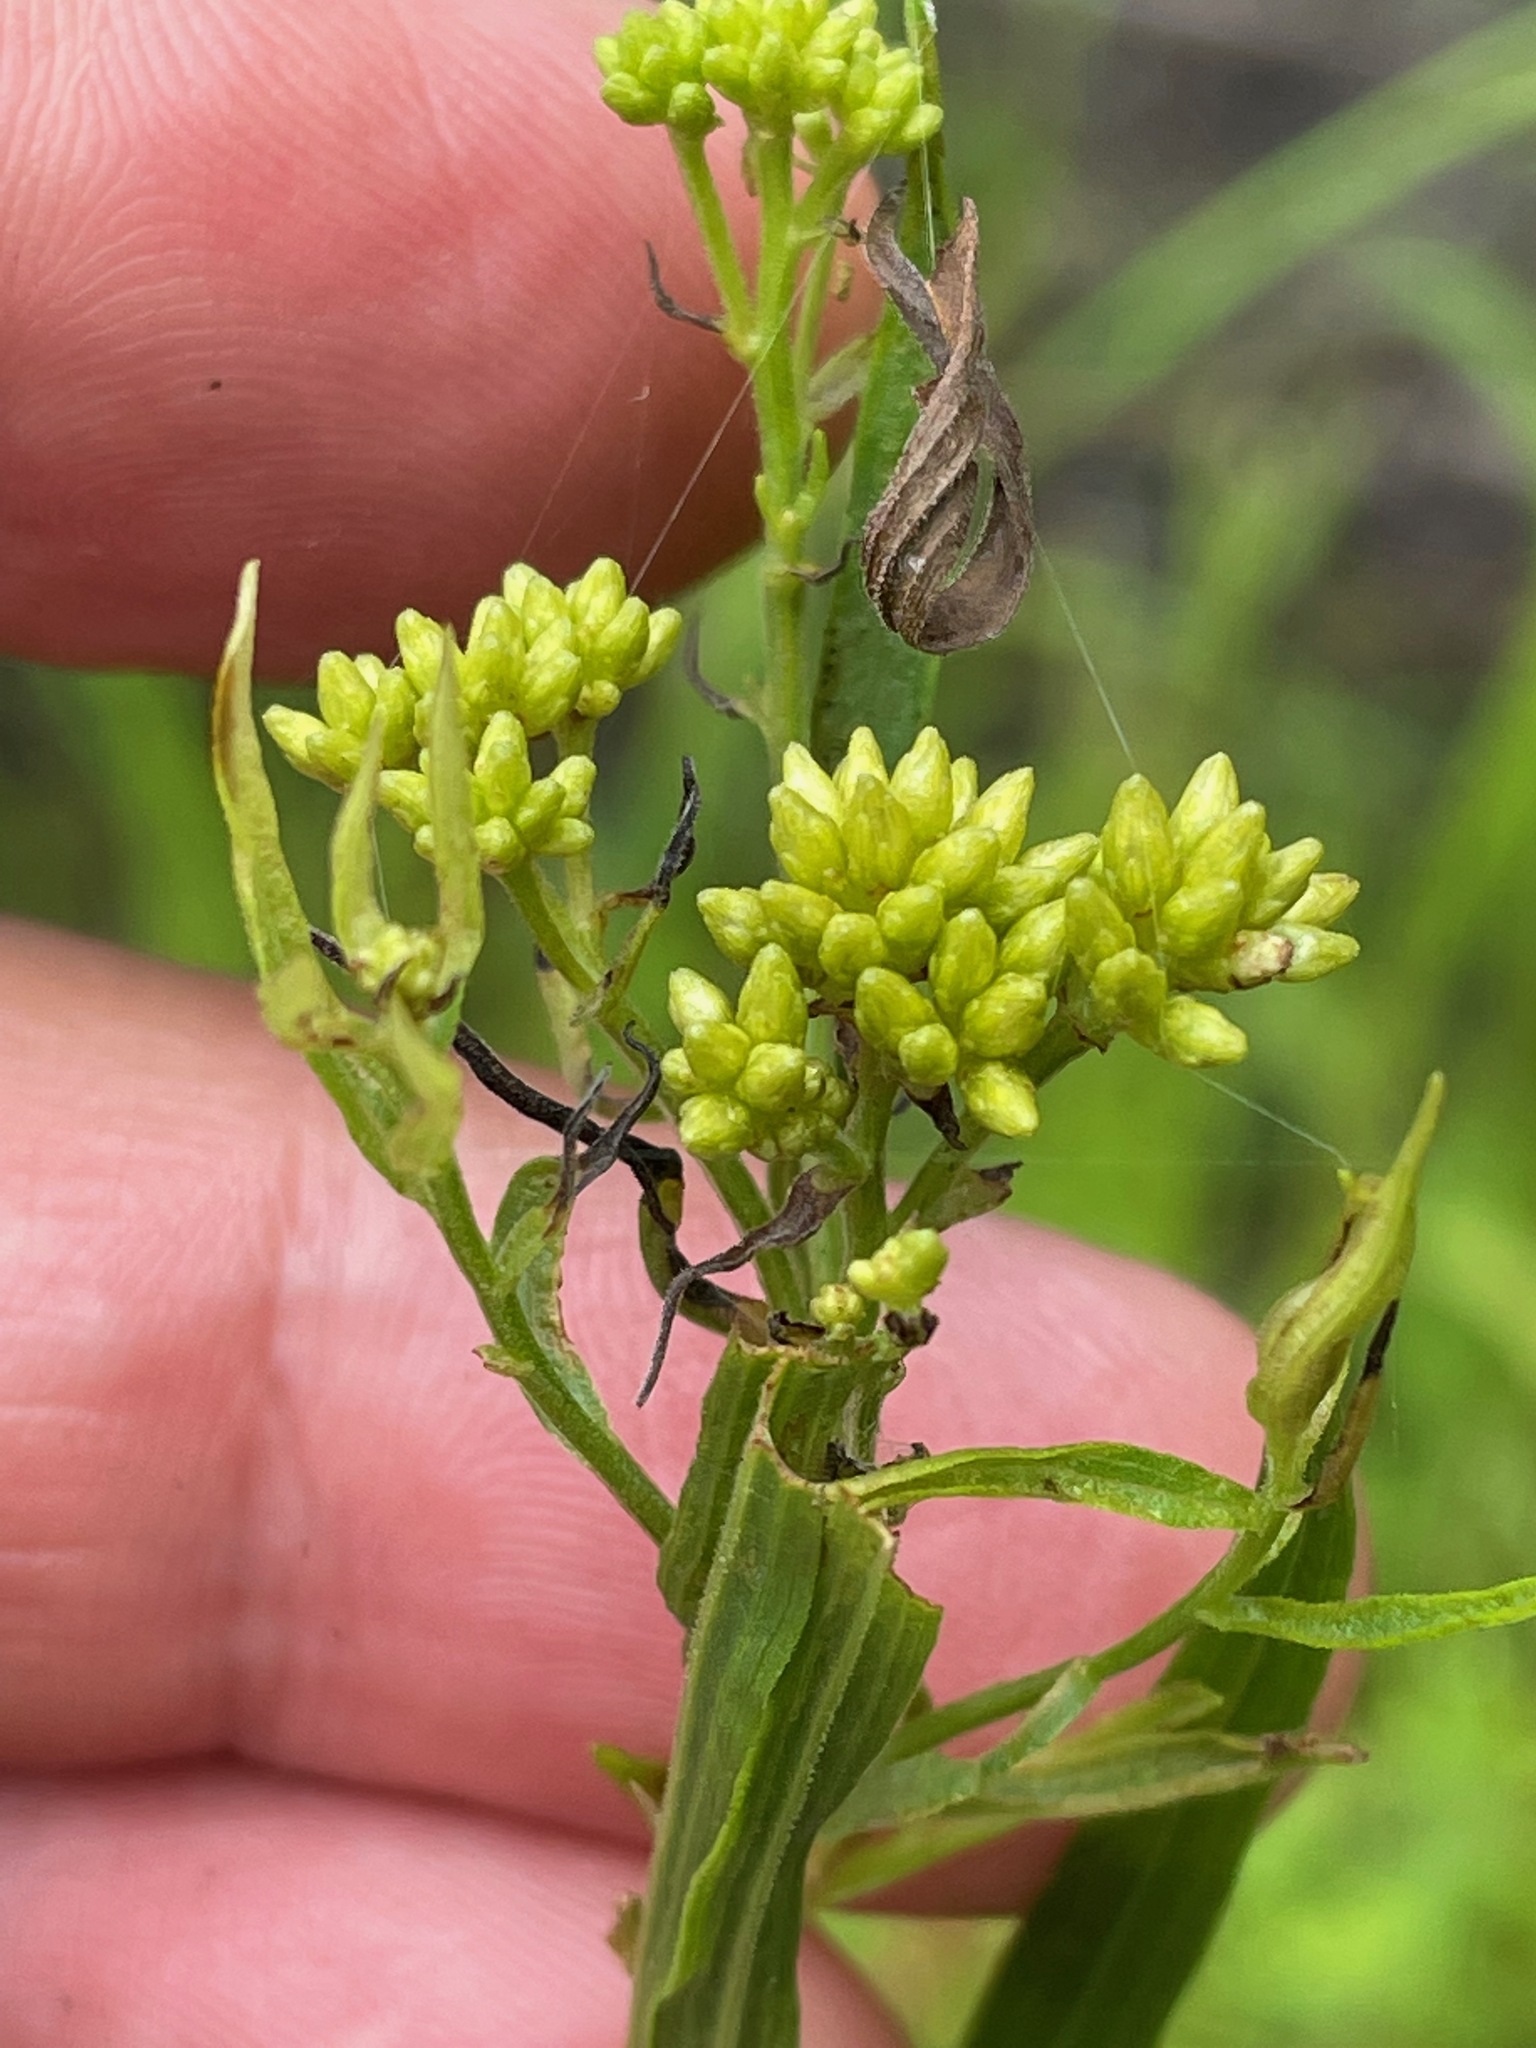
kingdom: Plantae
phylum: Tracheophyta
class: Magnoliopsida
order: Asterales
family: Asteraceae
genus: Euthamia
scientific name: Euthamia graminifolia
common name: Common goldentop
